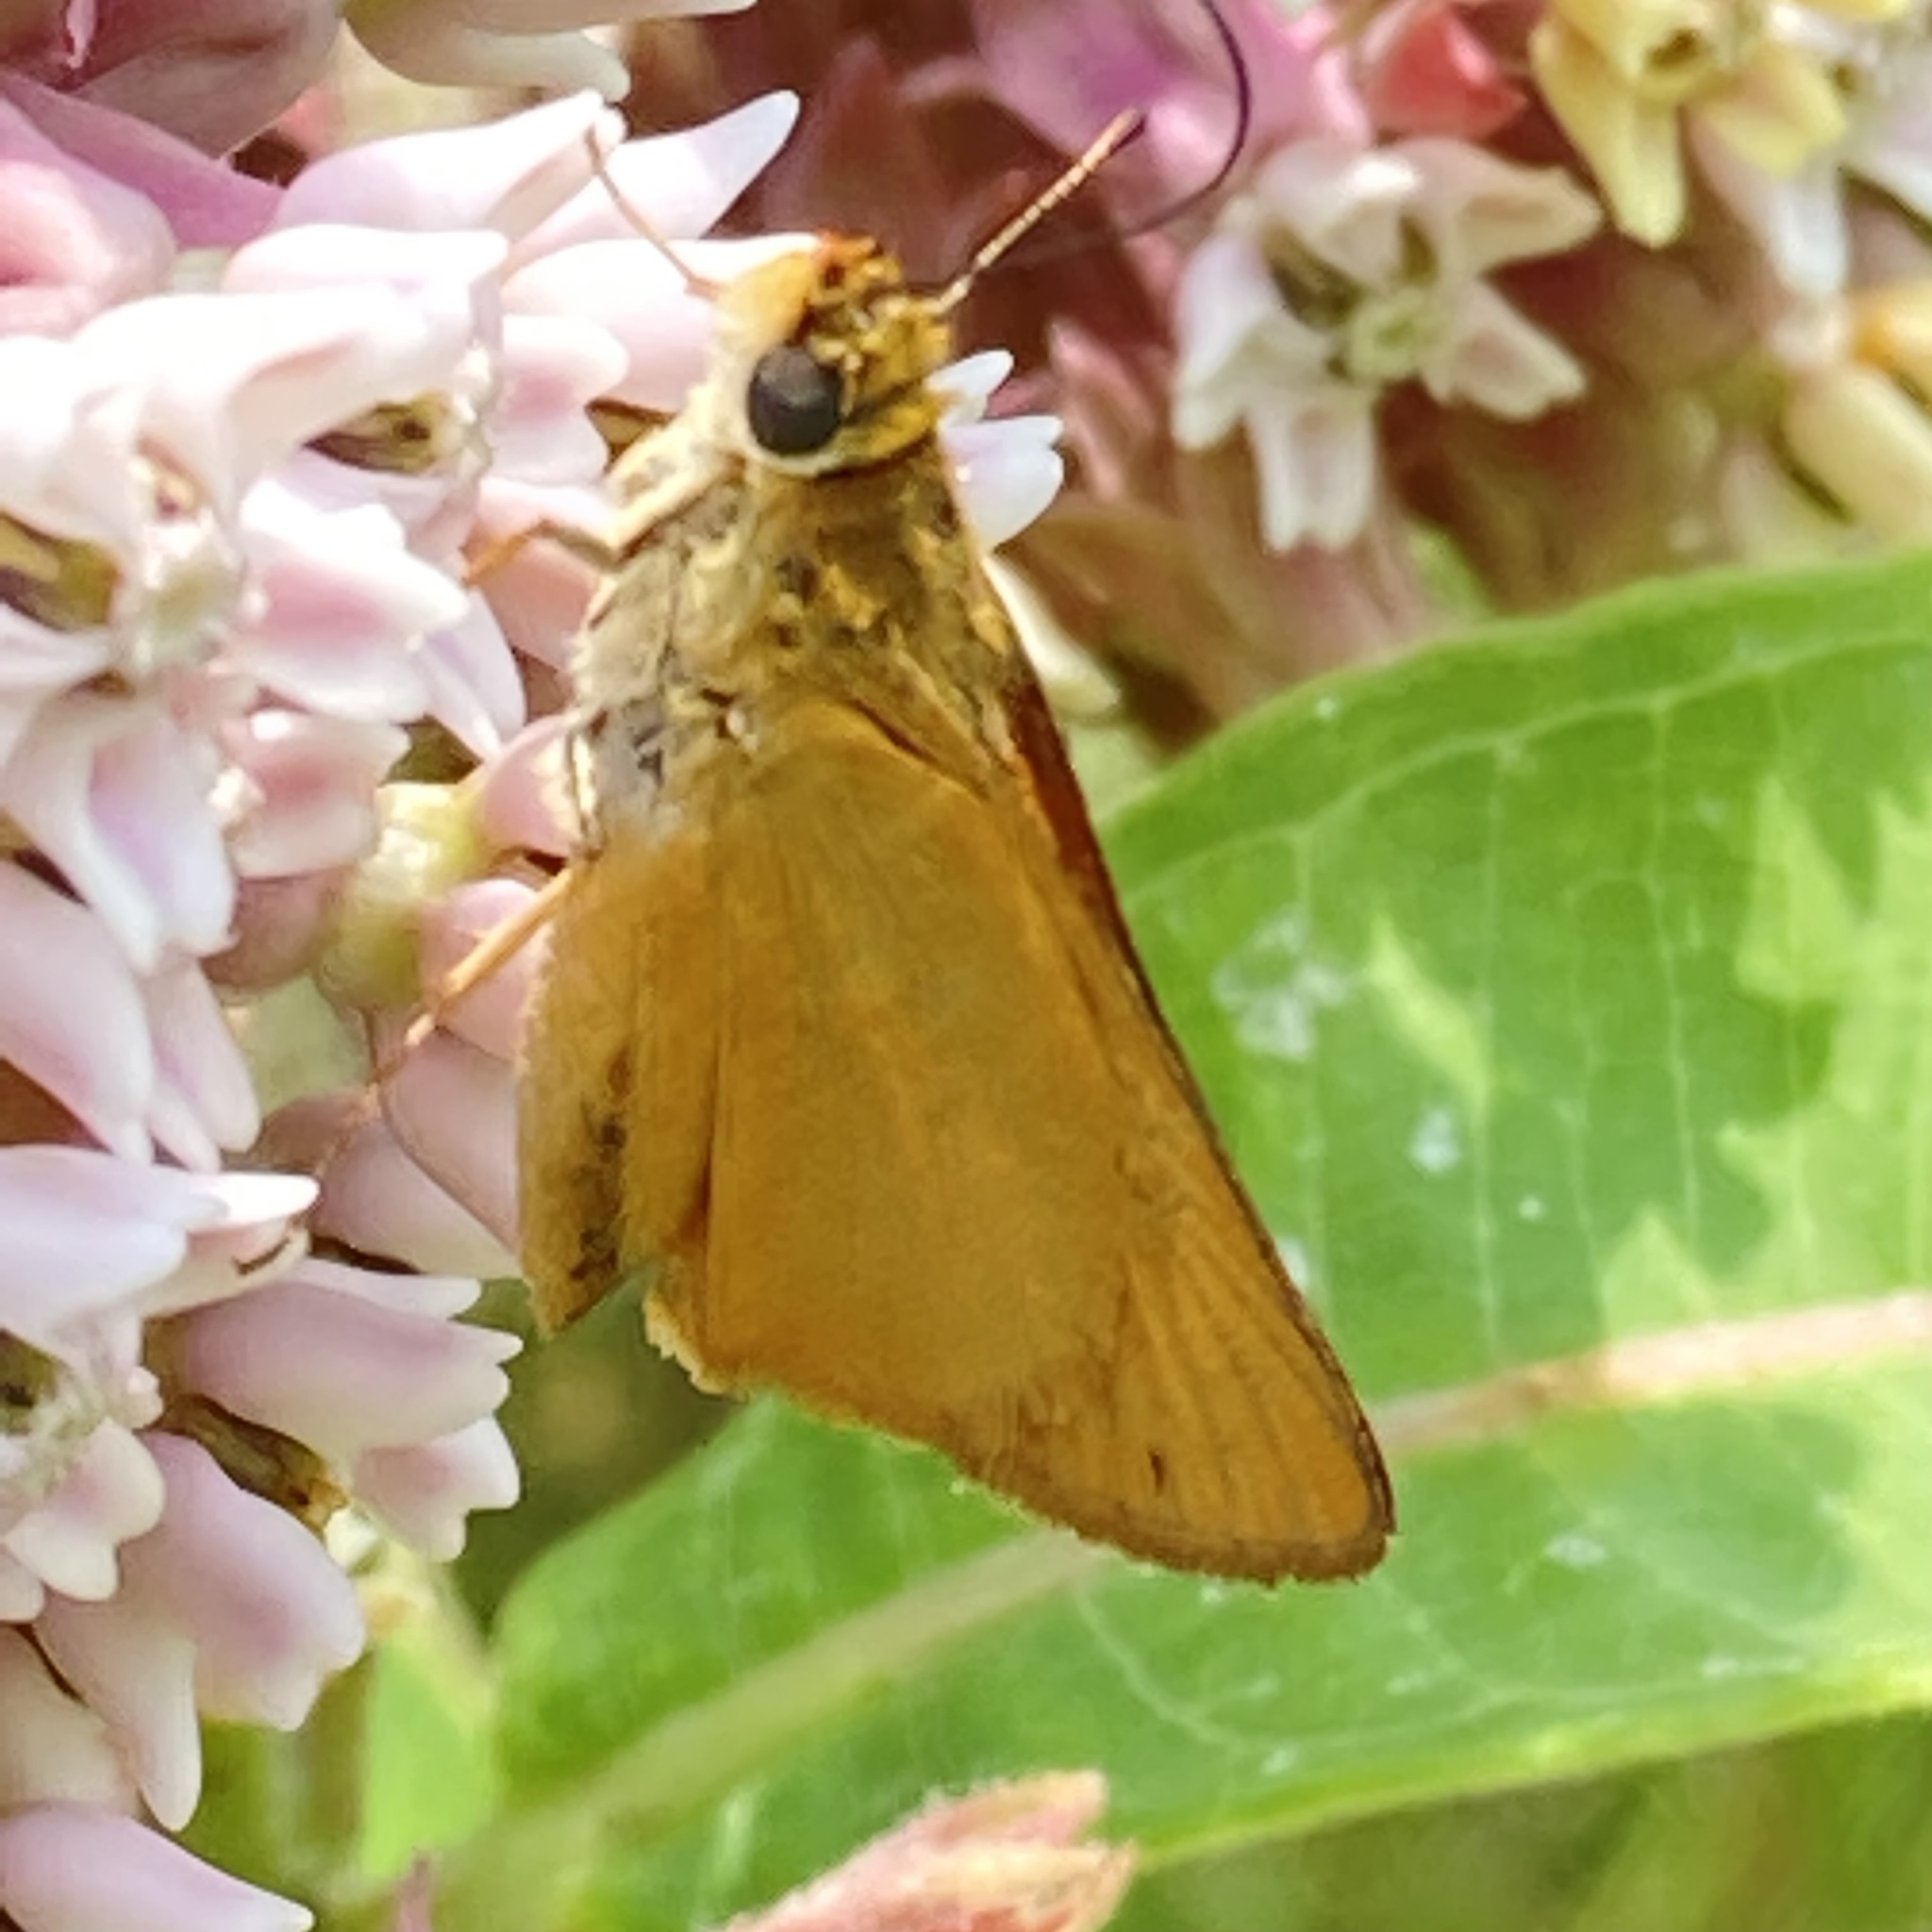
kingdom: Animalia
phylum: Arthropoda
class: Insecta
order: Lepidoptera
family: Hesperiidae
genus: Atrytone
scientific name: Atrytone delaware
